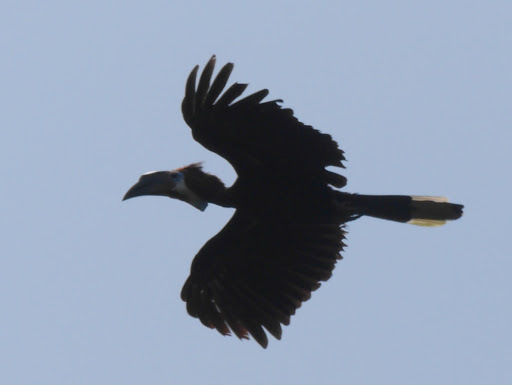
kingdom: Animalia
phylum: Chordata
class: Aves
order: Bucerotiformes
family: Bucerotidae
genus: Ceratogymna
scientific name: Ceratogymna atrata
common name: Black-casqued hornbill
